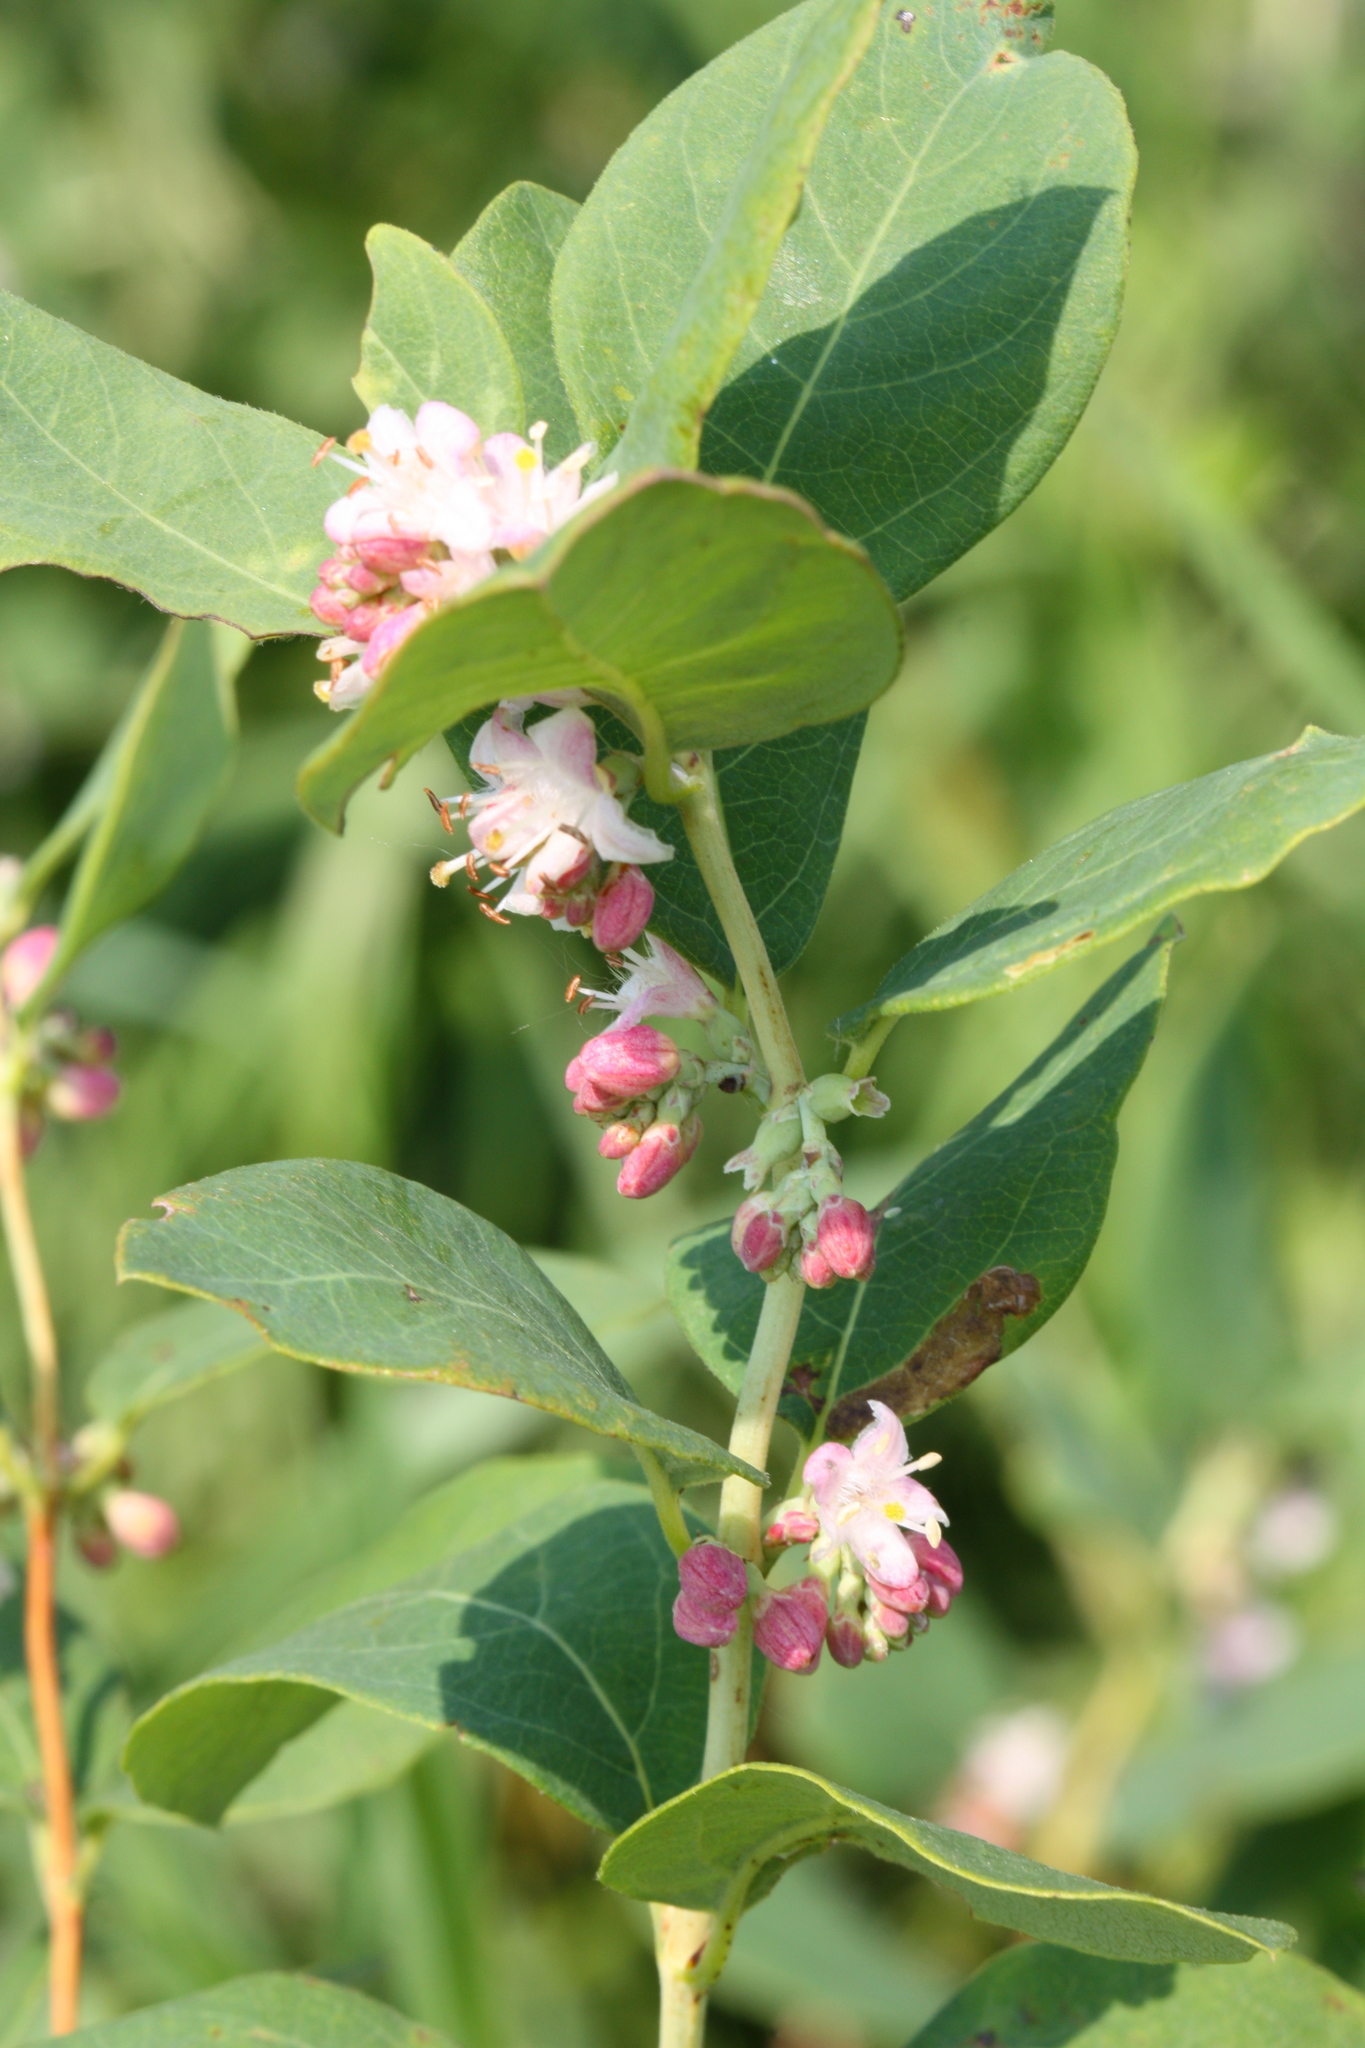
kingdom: Plantae
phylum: Tracheophyta
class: Magnoliopsida
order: Dipsacales
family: Caprifoliaceae
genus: Symphoricarpos
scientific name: Symphoricarpos occidentalis
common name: Wolfberry
